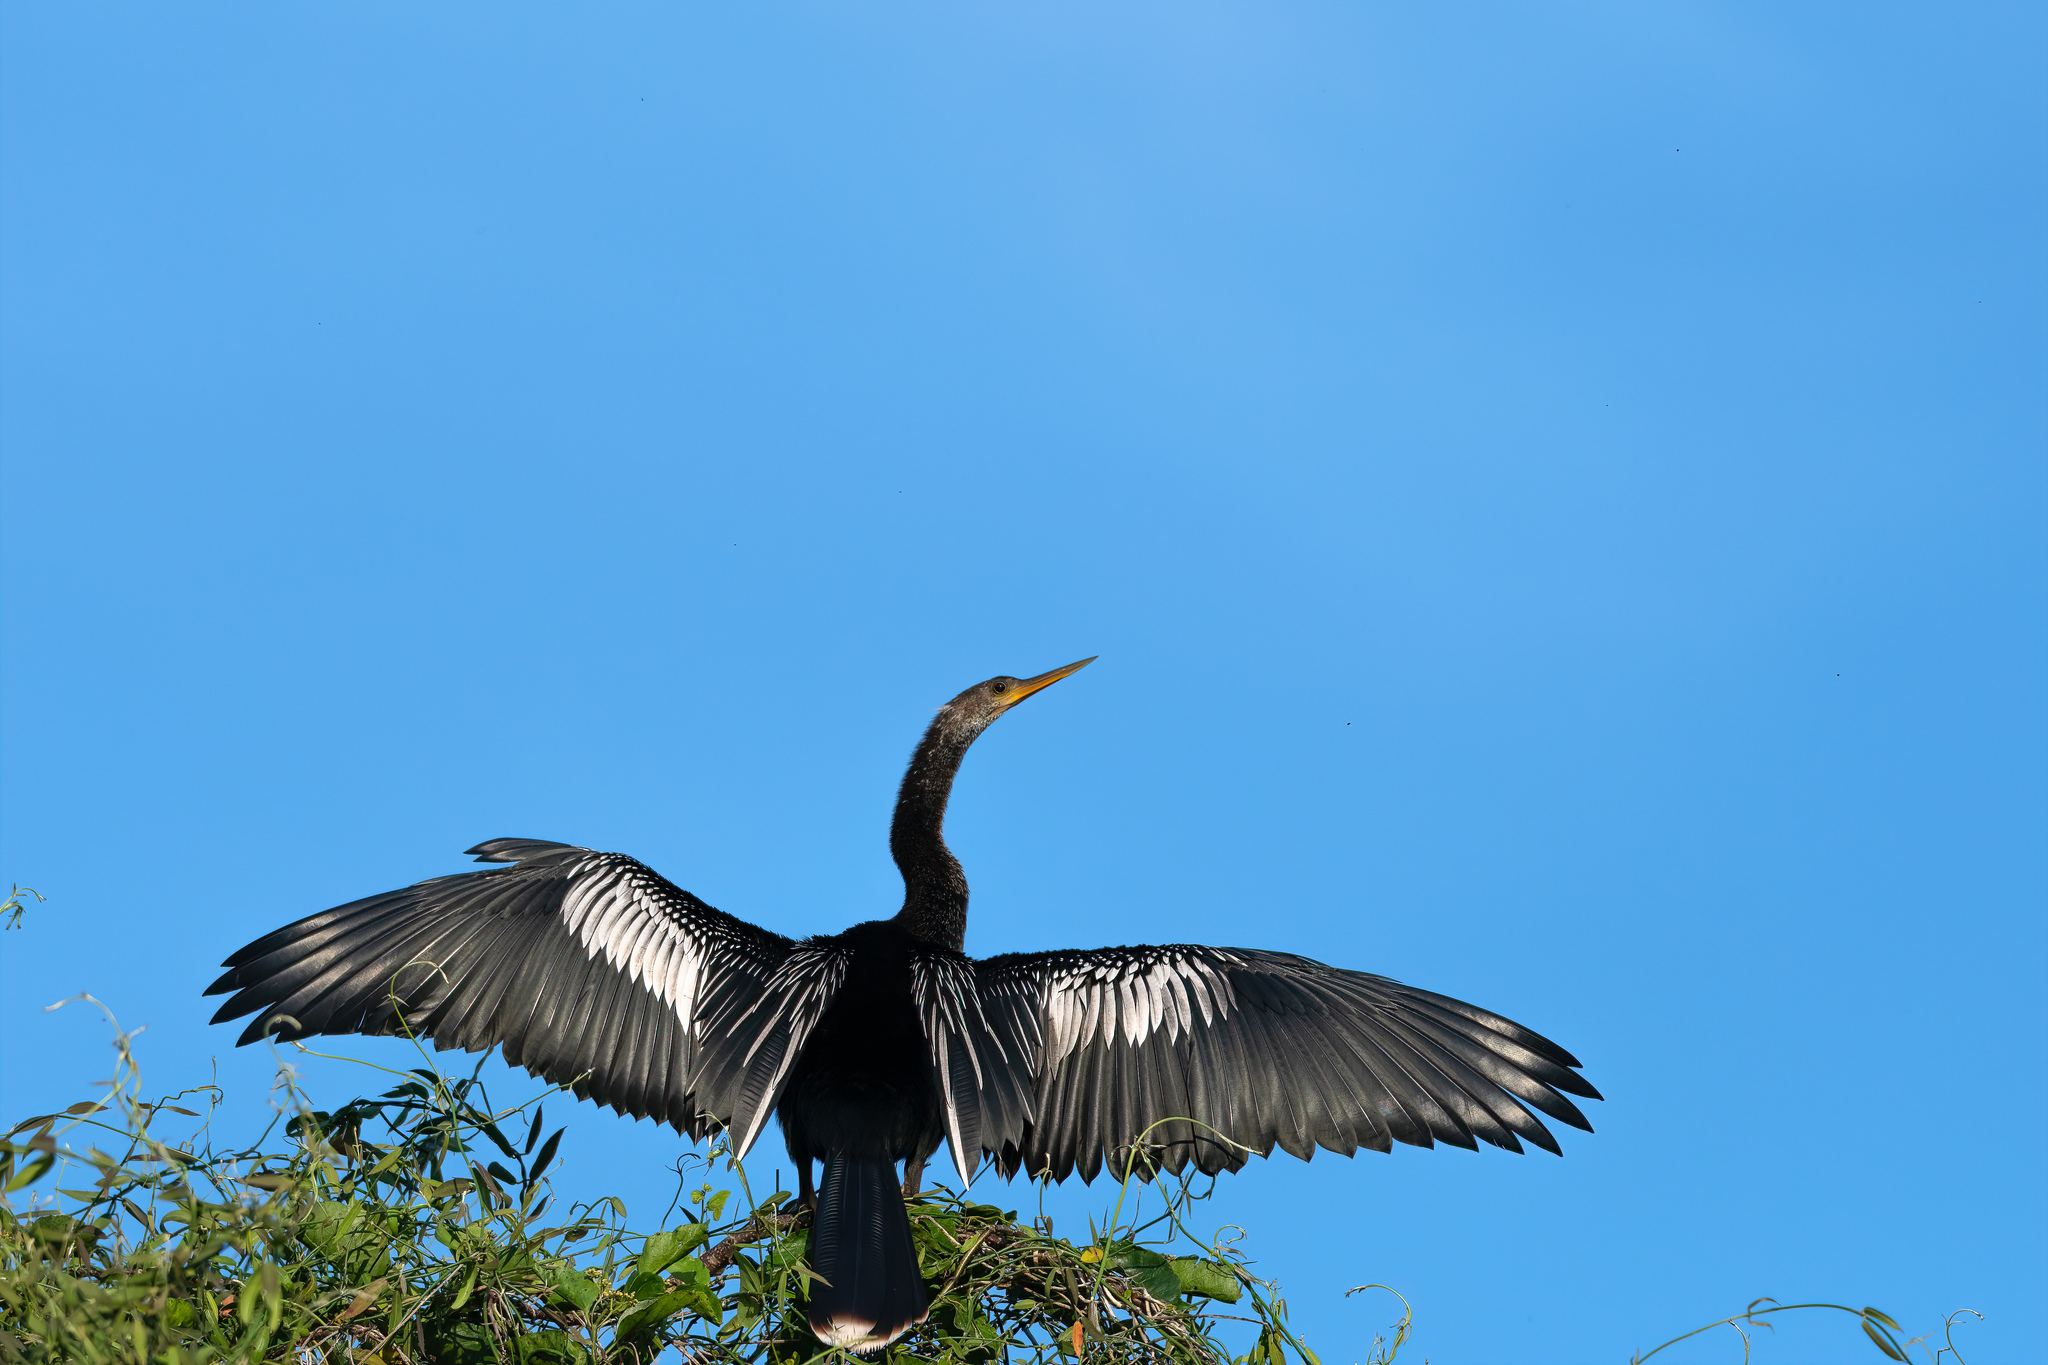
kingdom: Animalia
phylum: Chordata
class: Aves
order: Suliformes
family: Anhingidae
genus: Anhinga
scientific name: Anhinga anhinga
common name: Anhinga
